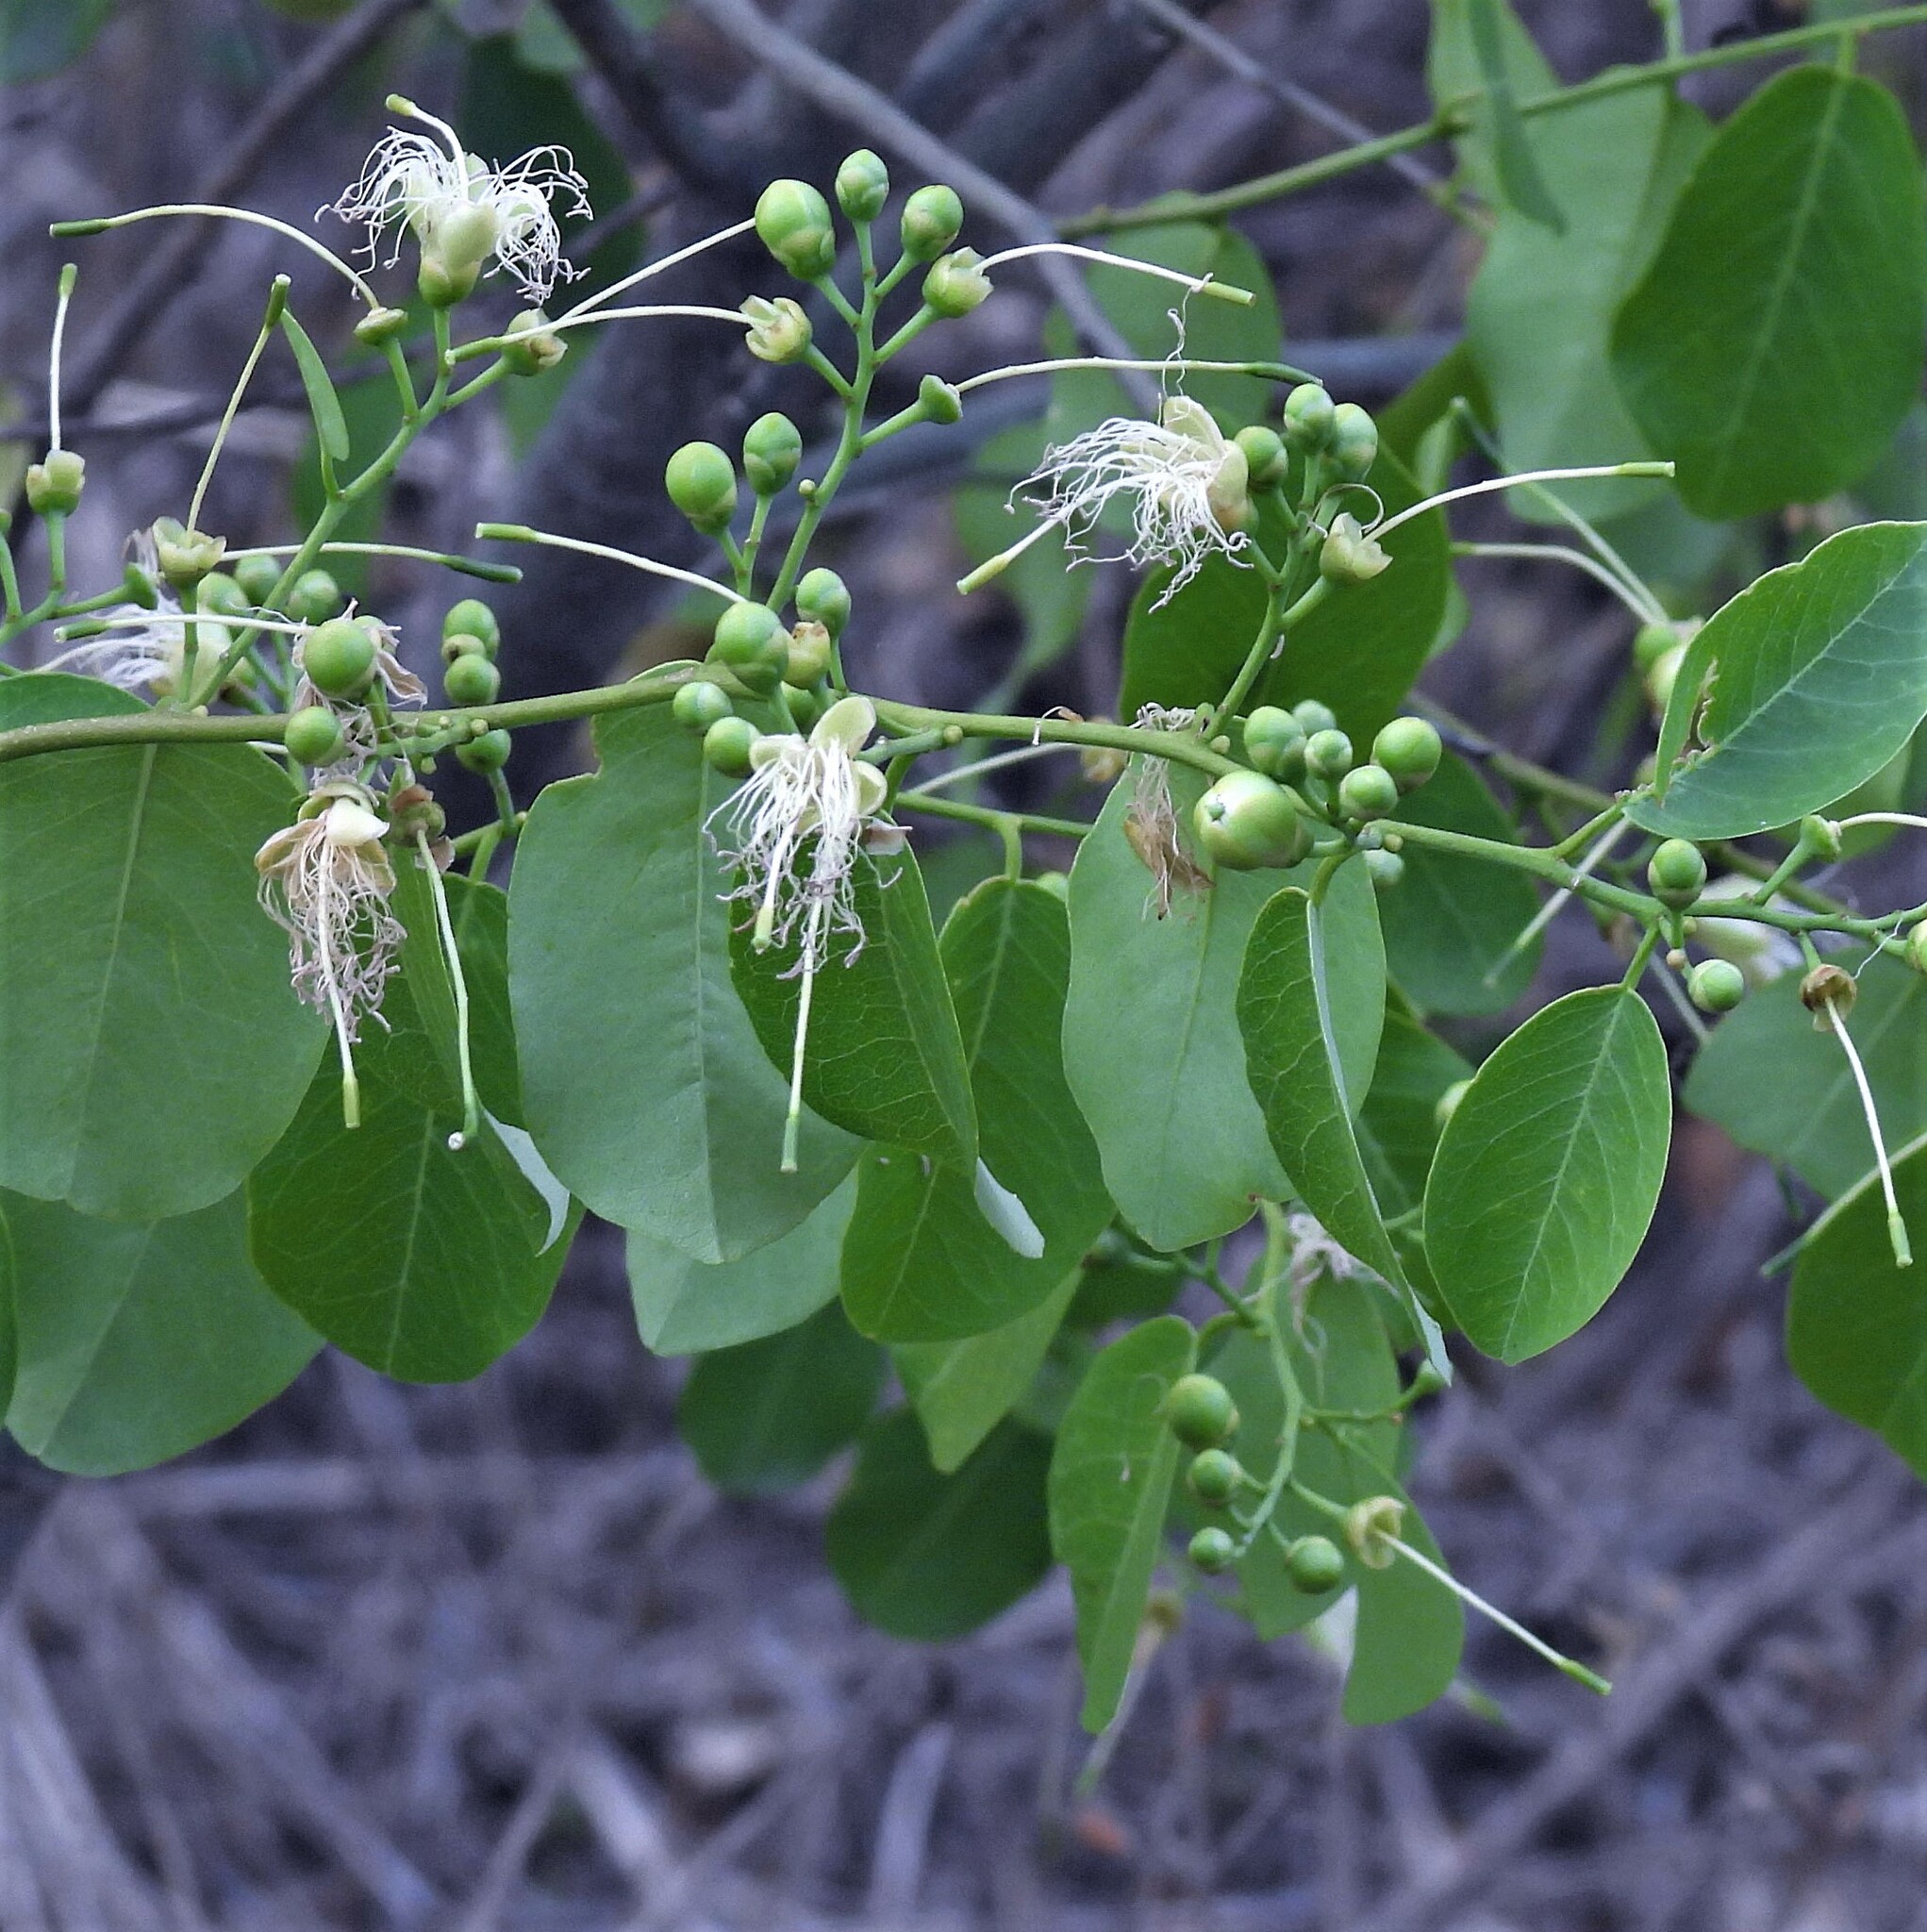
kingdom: Plantae
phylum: Tracheophyta
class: Magnoliopsida
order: Brassicales
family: Capparaceae
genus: Cynophalla
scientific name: Cynophalla retusa
